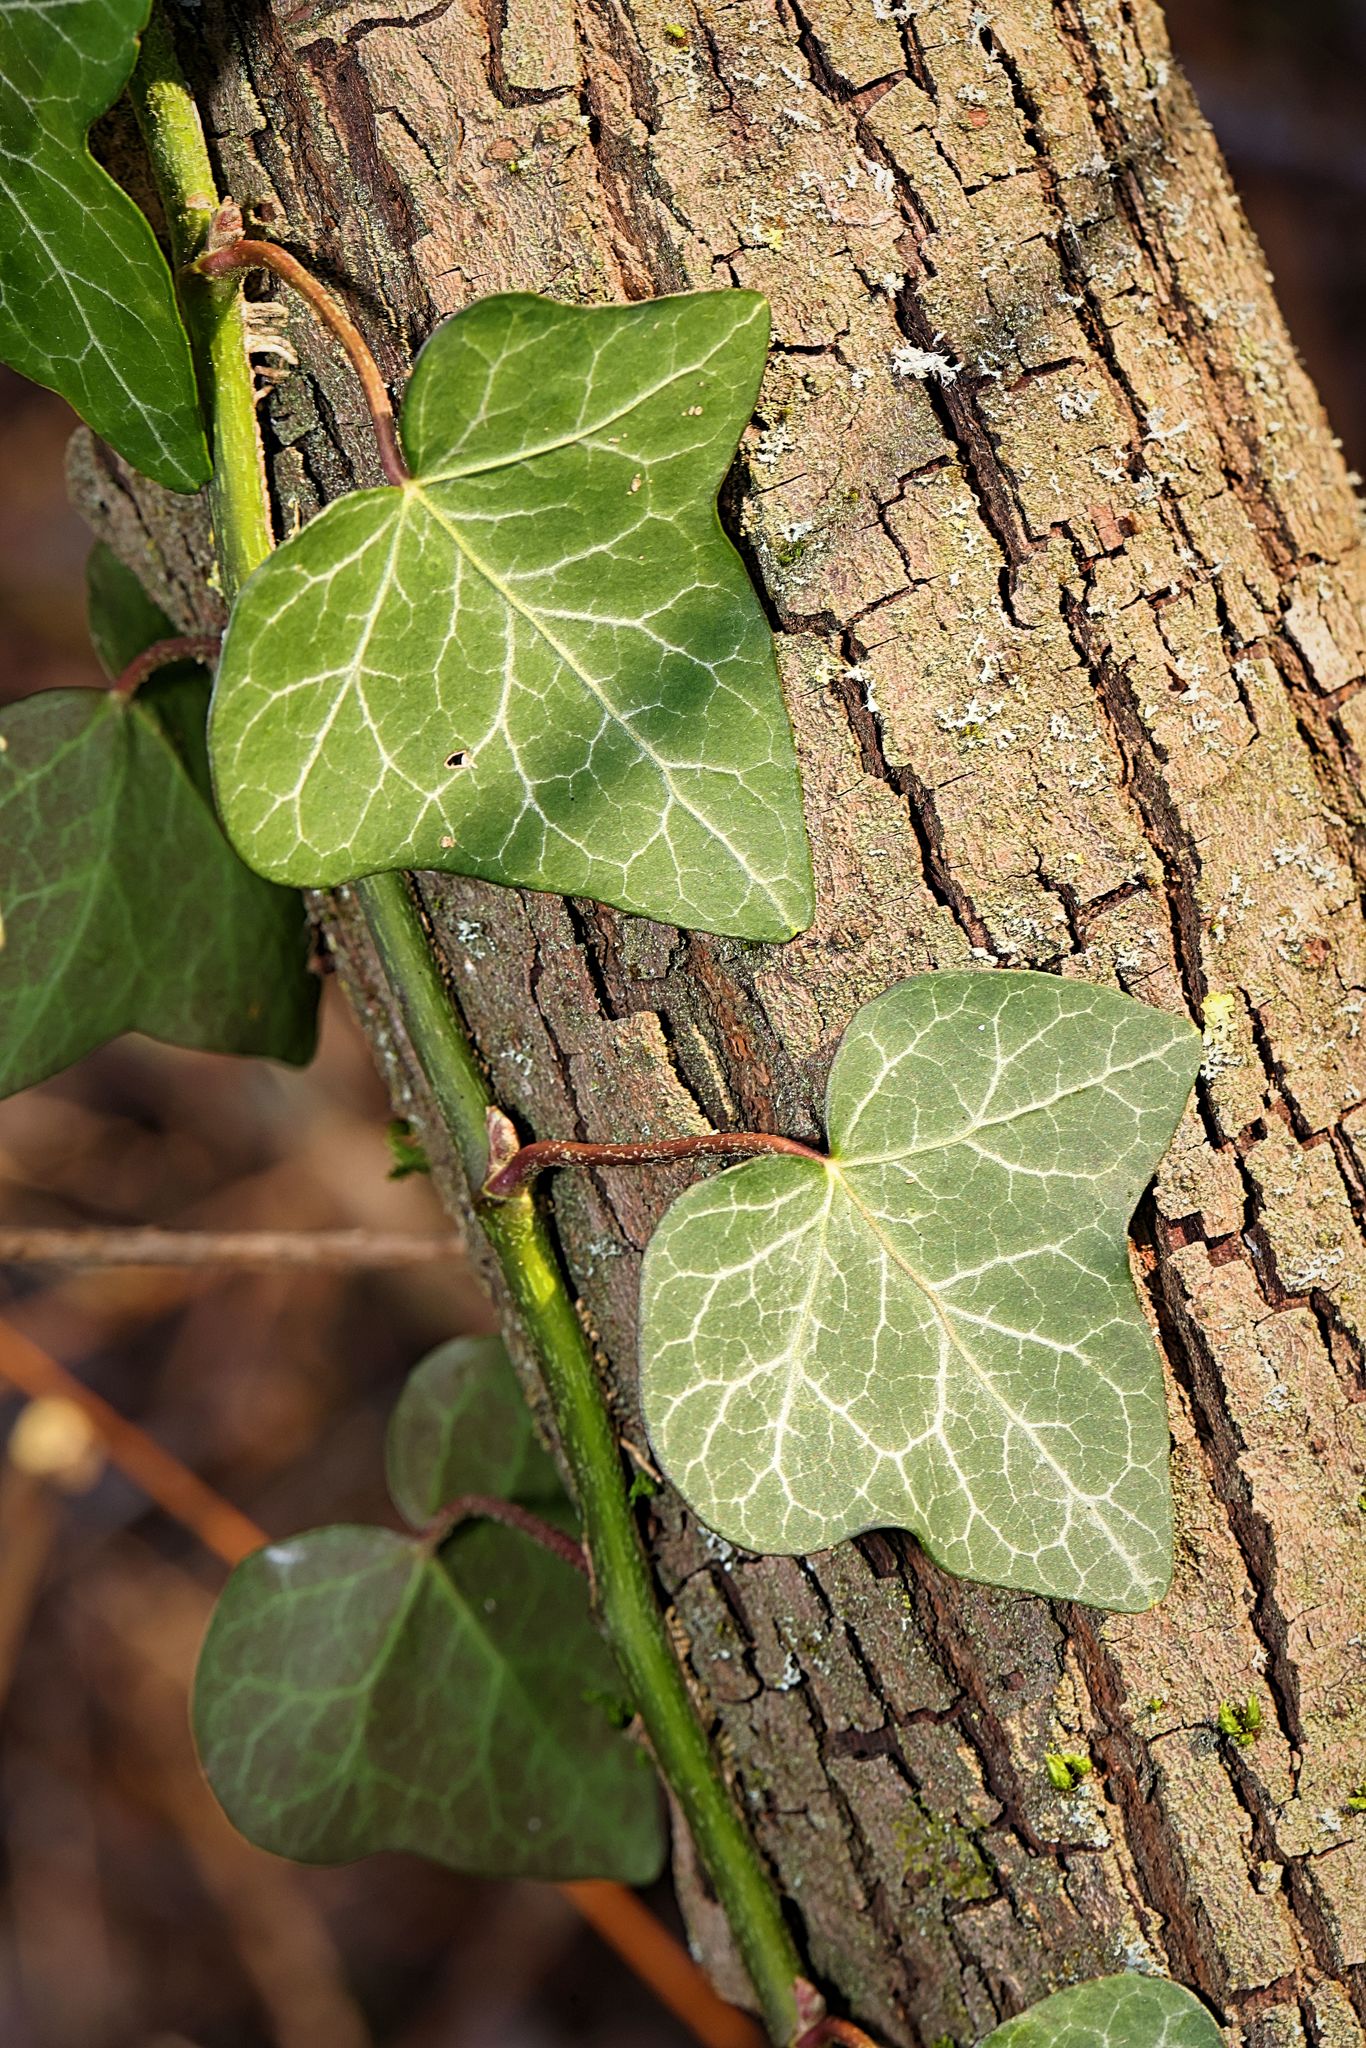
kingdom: Plantae
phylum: Tracheophyta
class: Magnoliopsida
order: Apiales
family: Araliaceae
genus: Hedera
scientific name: Hedera helix
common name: Ivy
